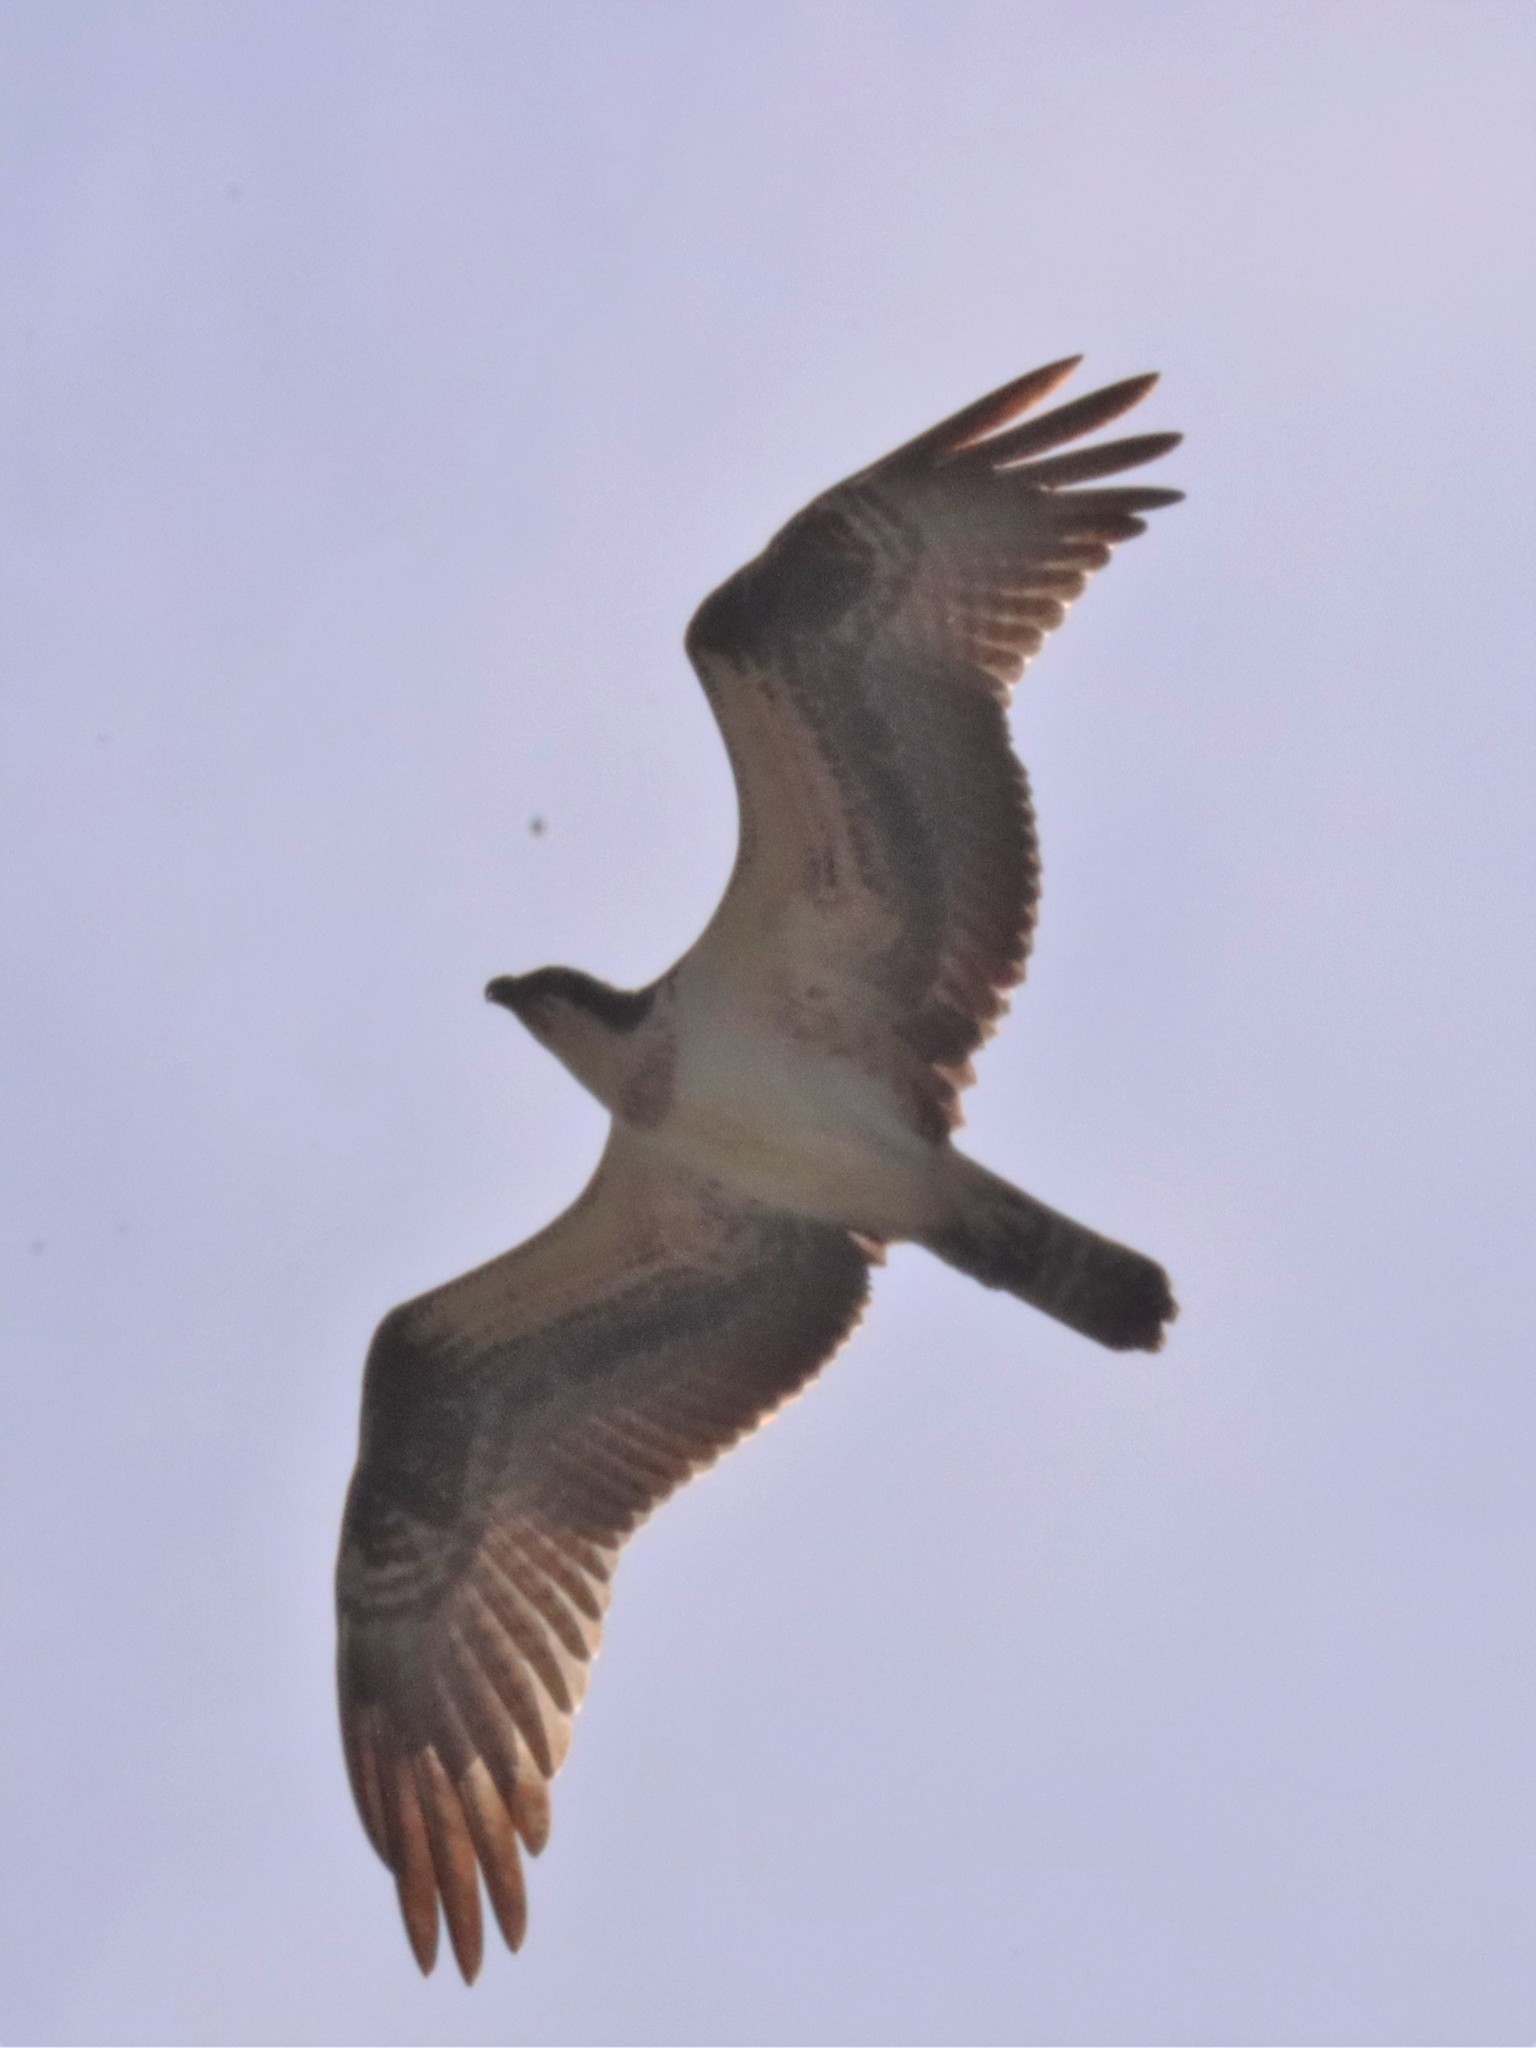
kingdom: Animalia
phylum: Chordata
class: Aves
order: Accipitriformes
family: Pandionidae
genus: Pandion
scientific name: Pandion haliaetus
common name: Osprey
